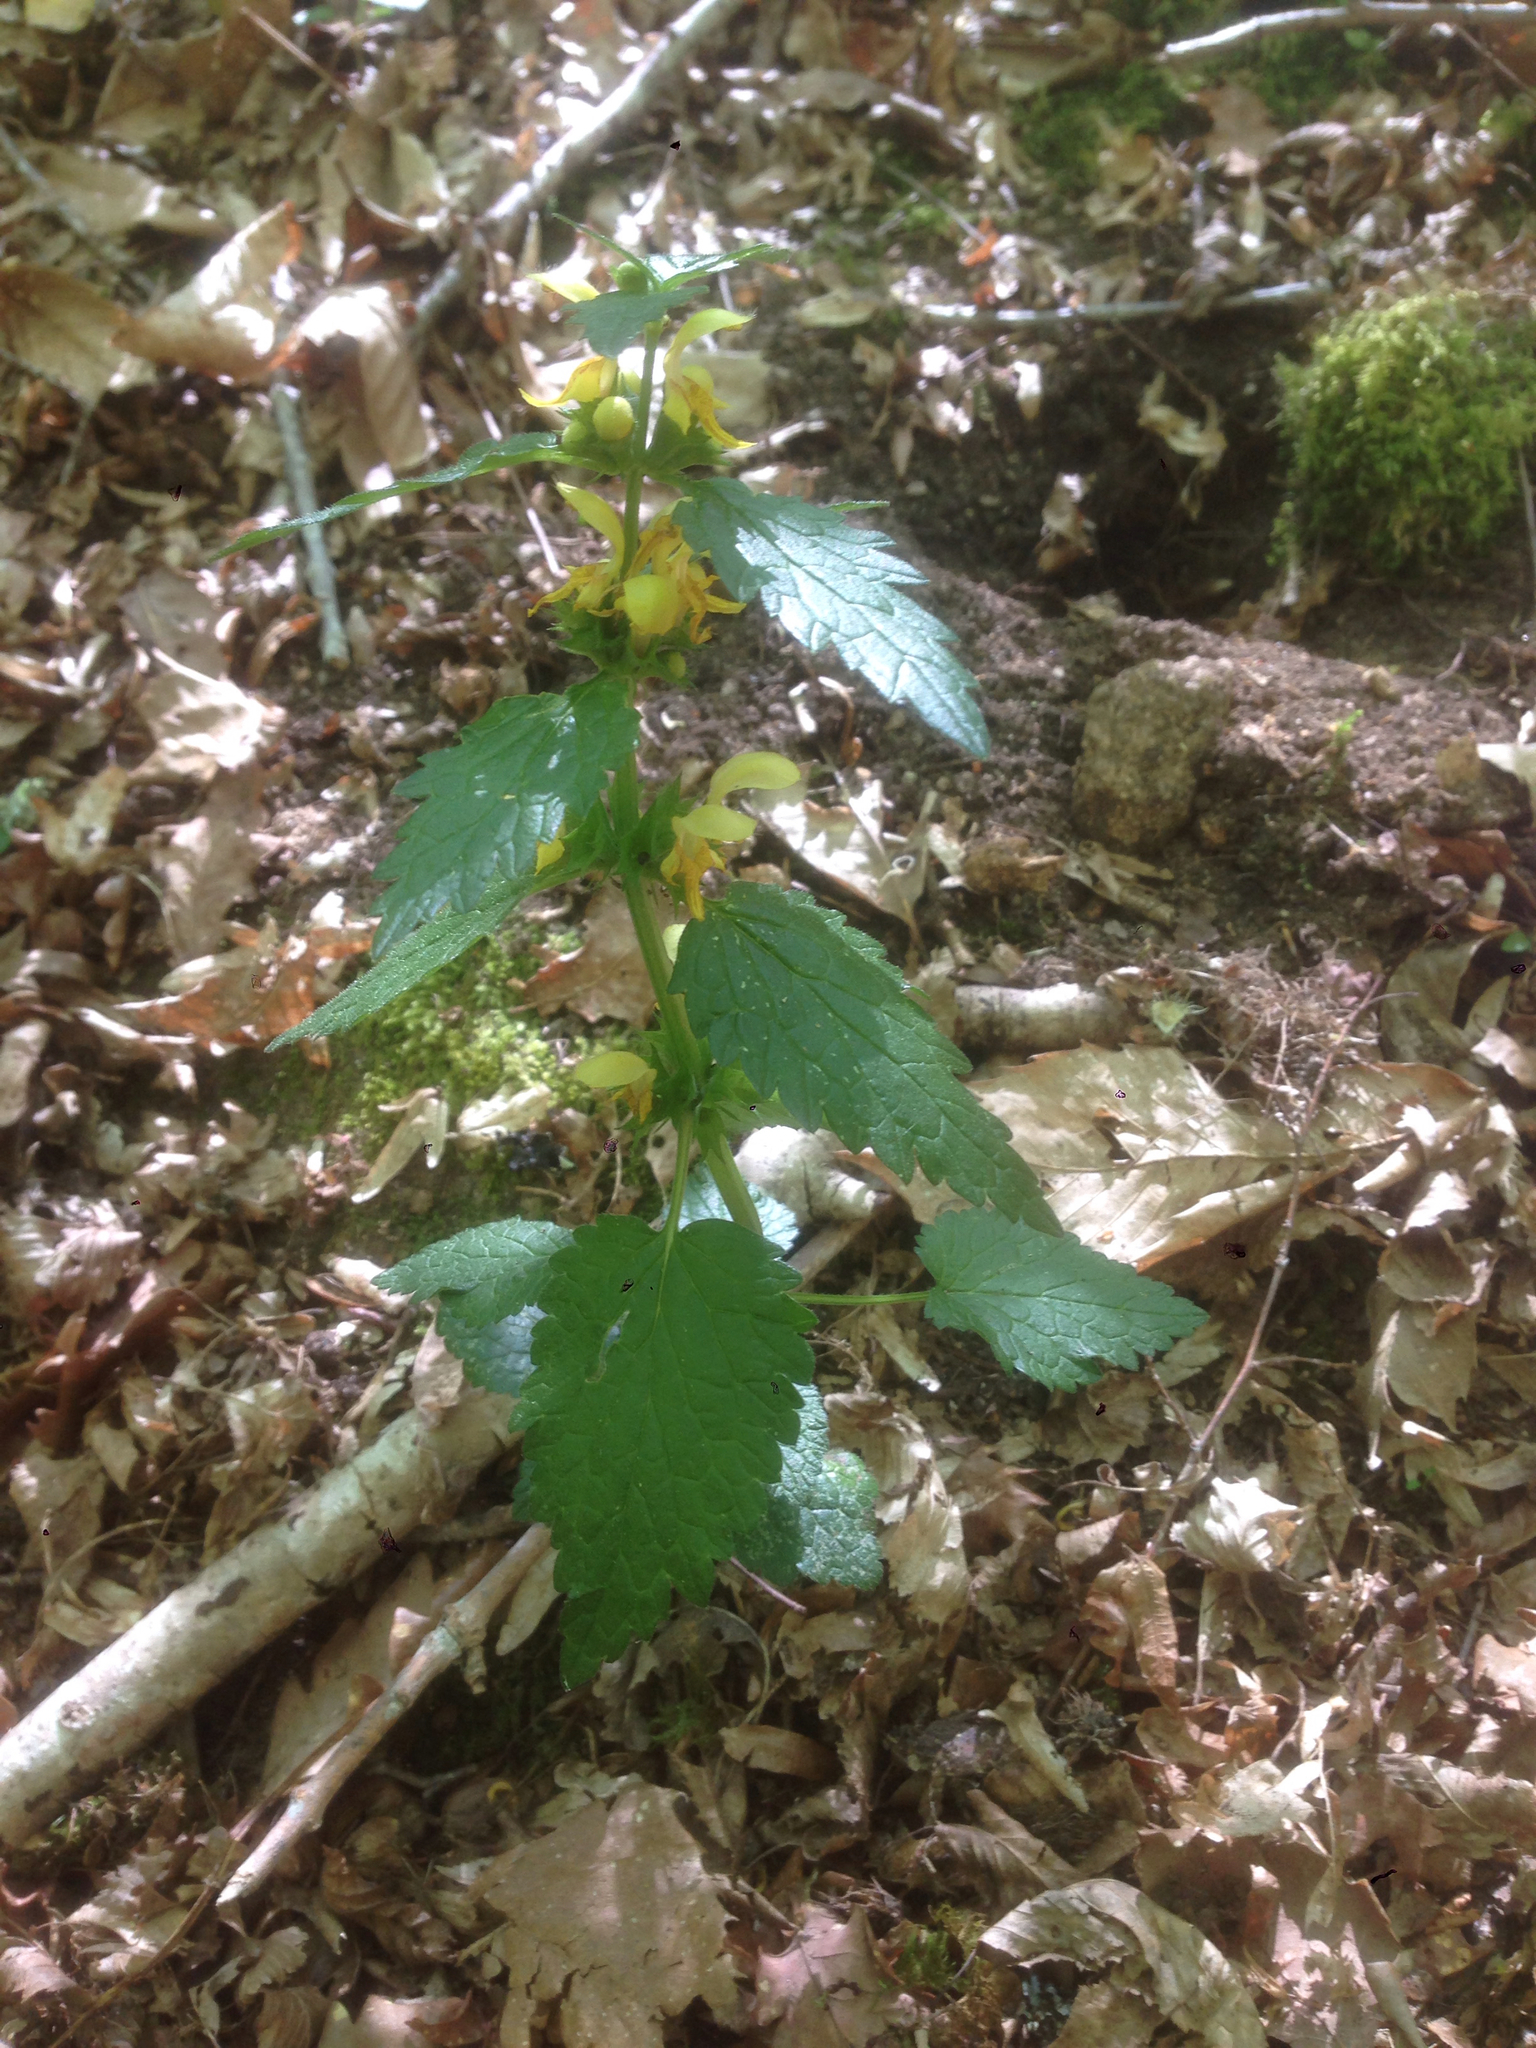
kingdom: Plantae
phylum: Tracheophyta
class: Magnoliopsida
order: Lamiales
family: Lamiaceae
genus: Lamium
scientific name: Lamium galeobdolon
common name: Yellow archangel
